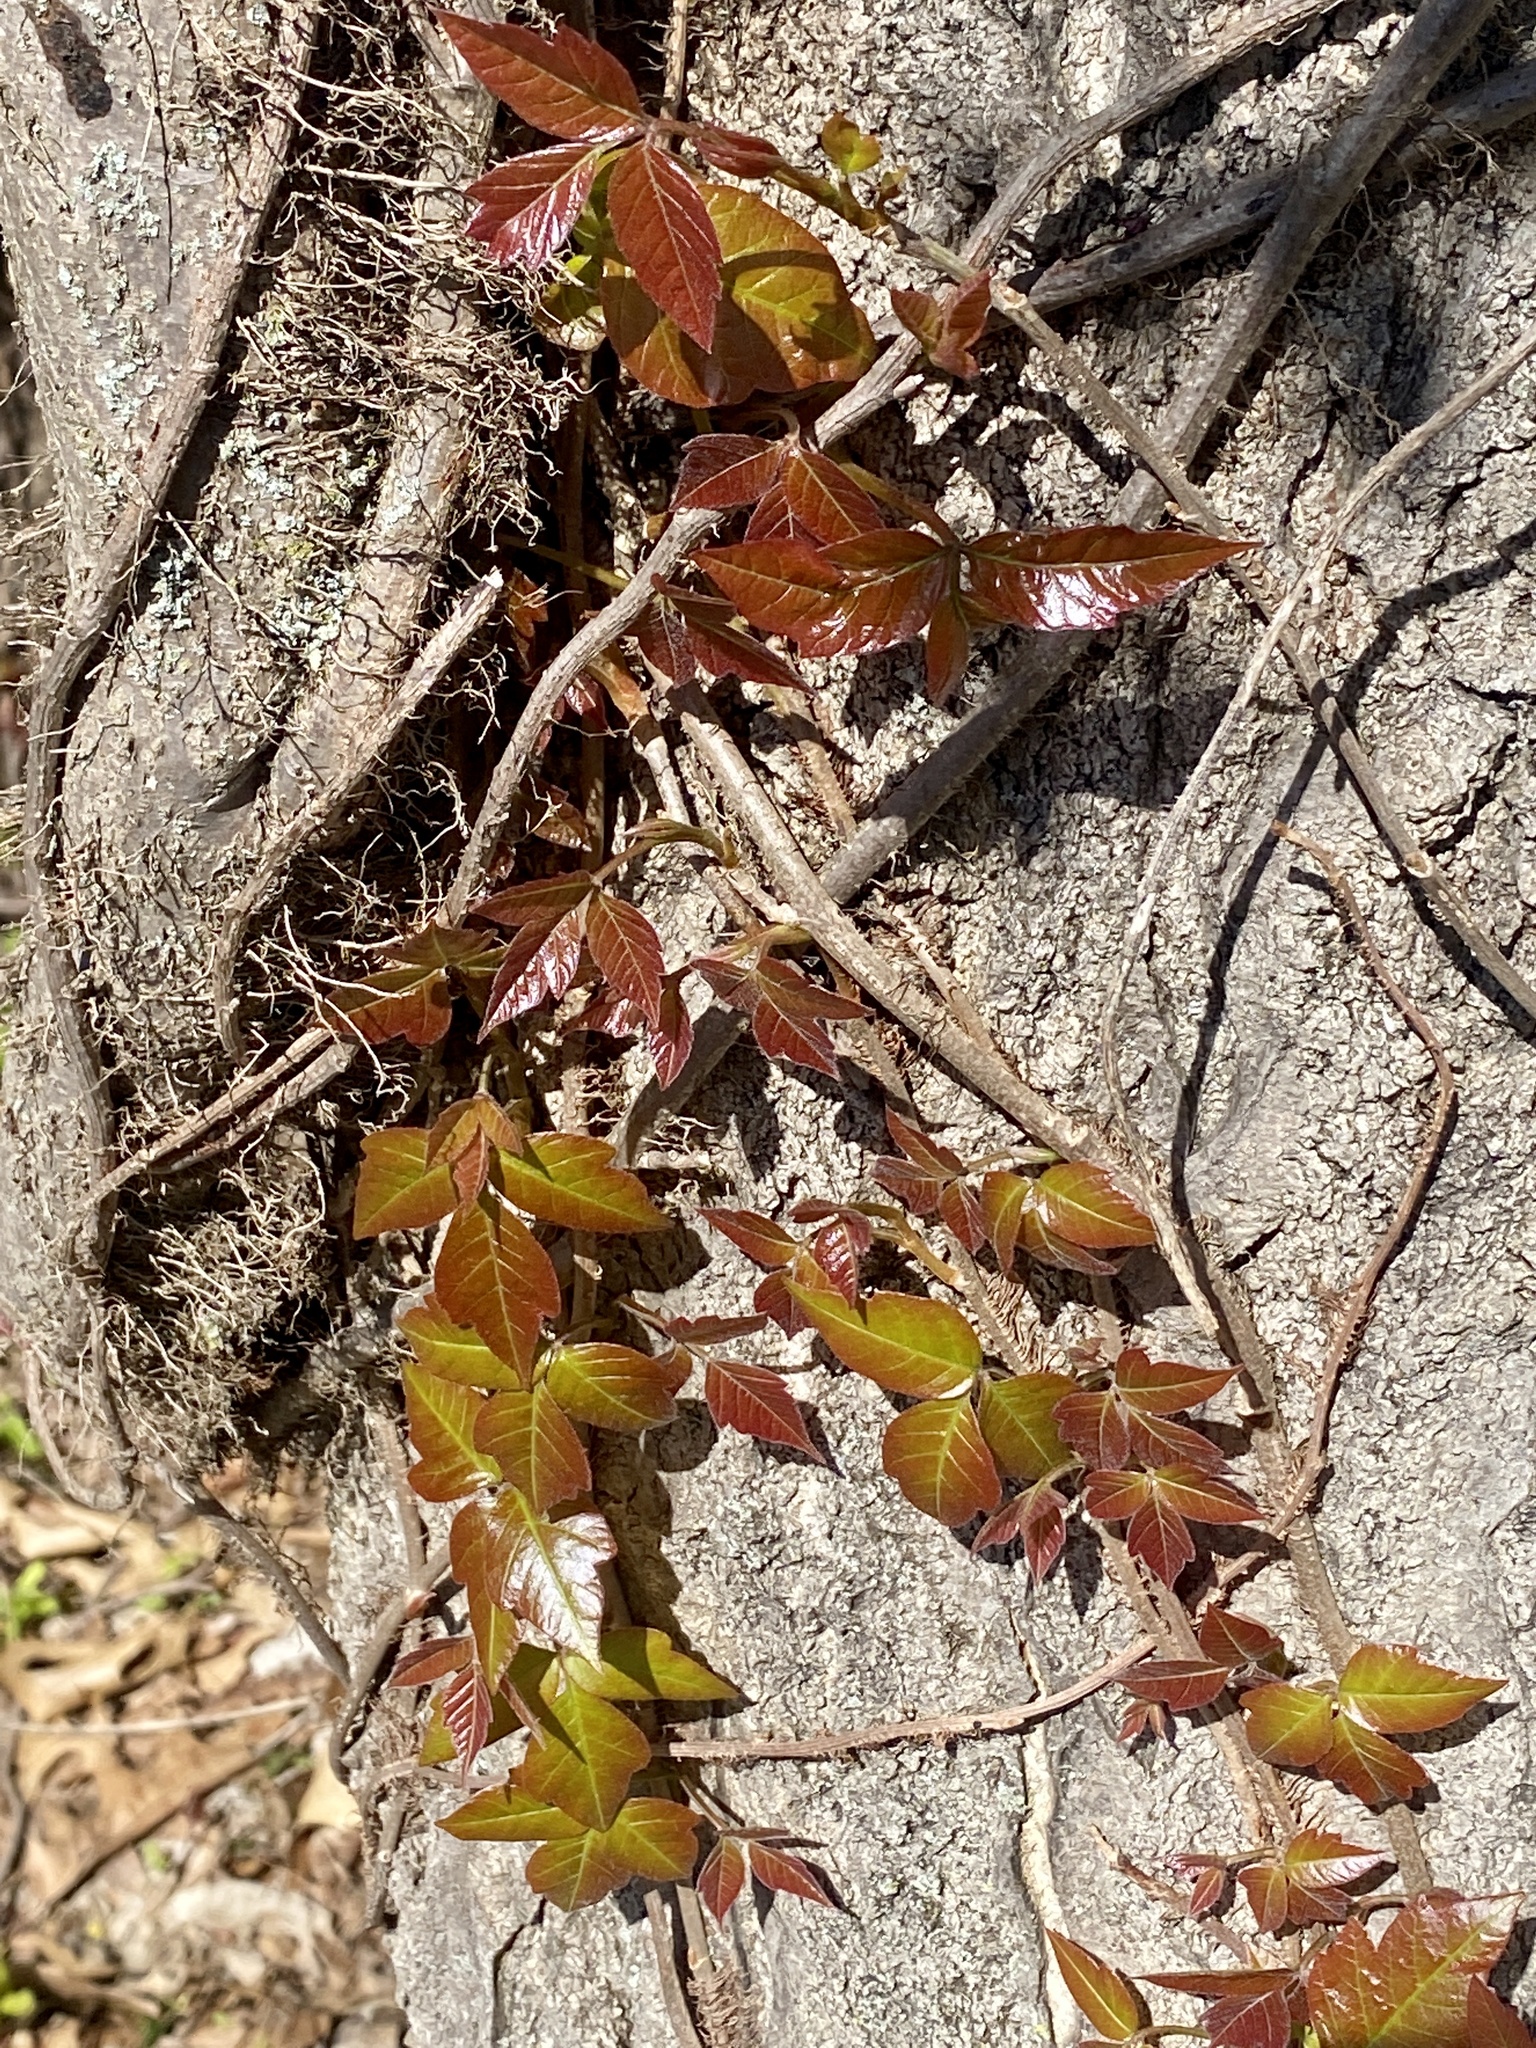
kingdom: Plantae
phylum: Tracheophyta
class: Magnoliopsida
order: Sapindales
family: Anacardiaceae
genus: Toxicodendron
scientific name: Toxicodendron radicans
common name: Poison ivy
